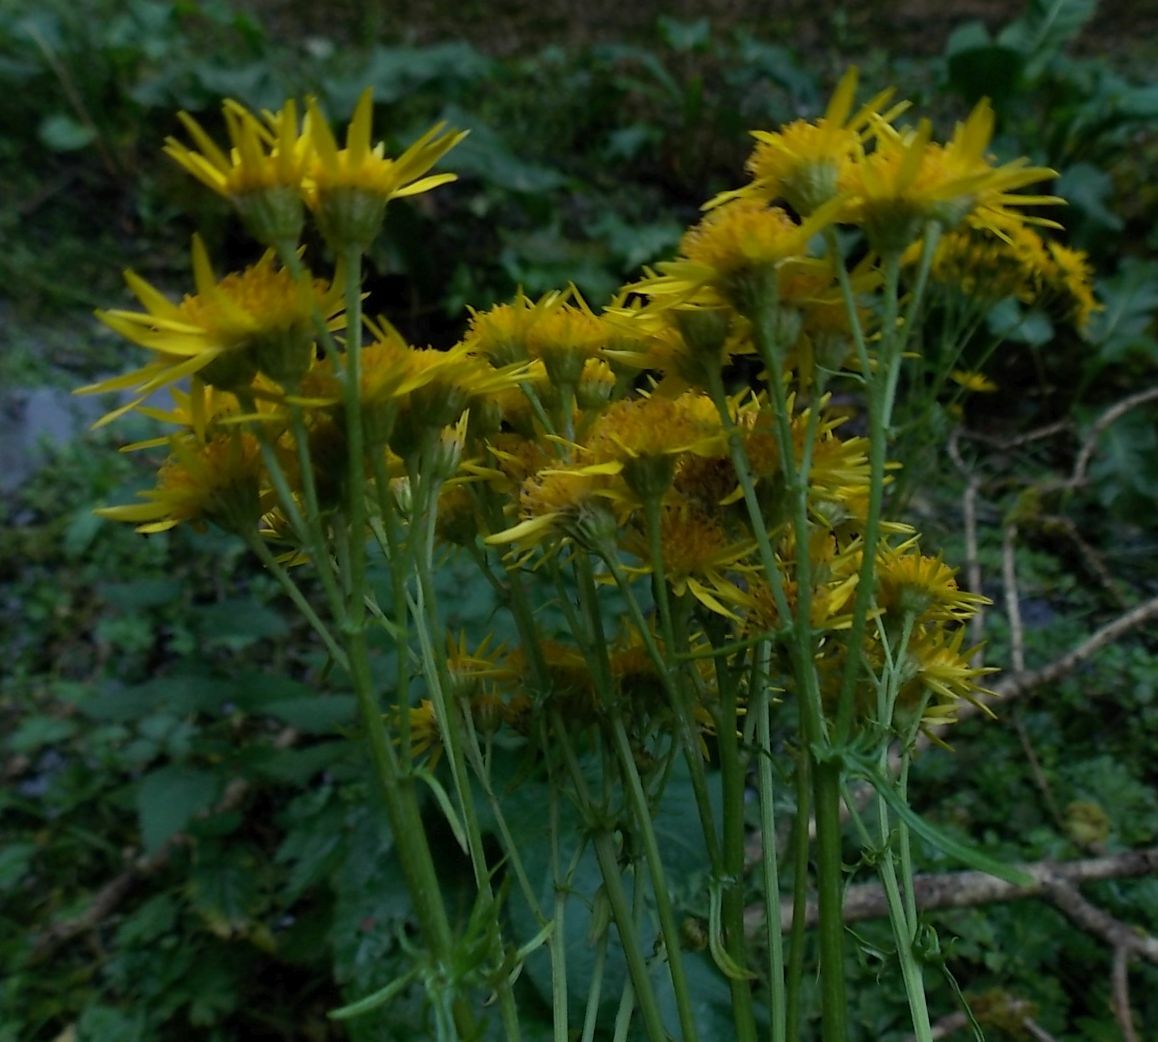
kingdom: Plantae
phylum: Tracheophyta
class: Magnoliopsida
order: Asterales
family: Asteraceae
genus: Jacobaea
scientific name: Jacobaea vulgaris
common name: Stinking willie
